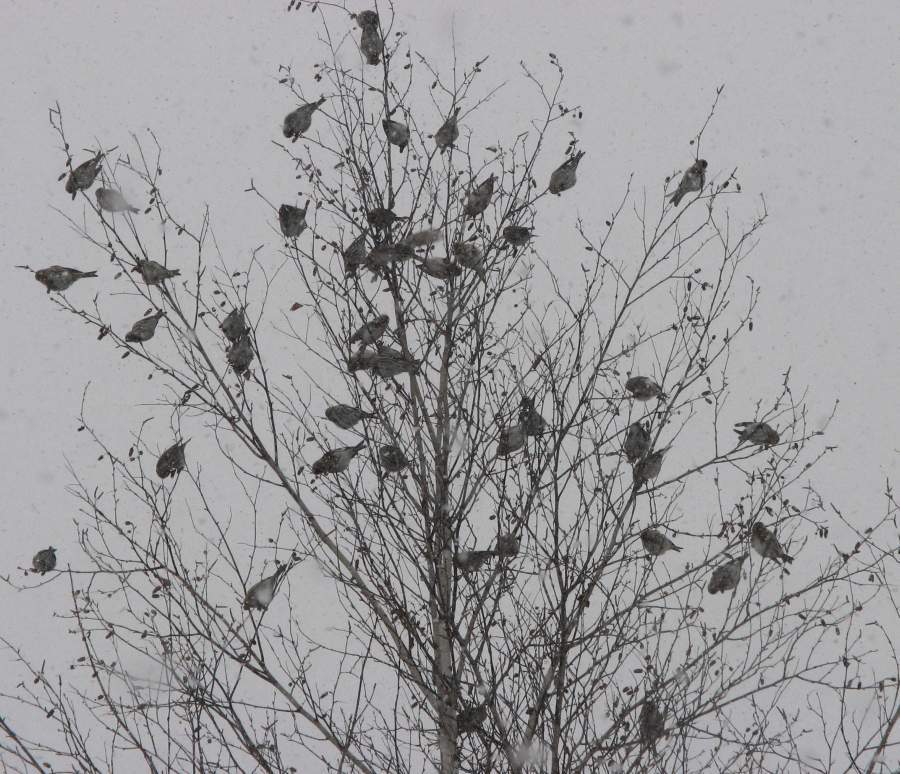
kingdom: Animalia
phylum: Chordata
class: Aves
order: Passeriformes
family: Fringillidae
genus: Acanthis
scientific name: Acanthis flammea
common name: Common redpoll
